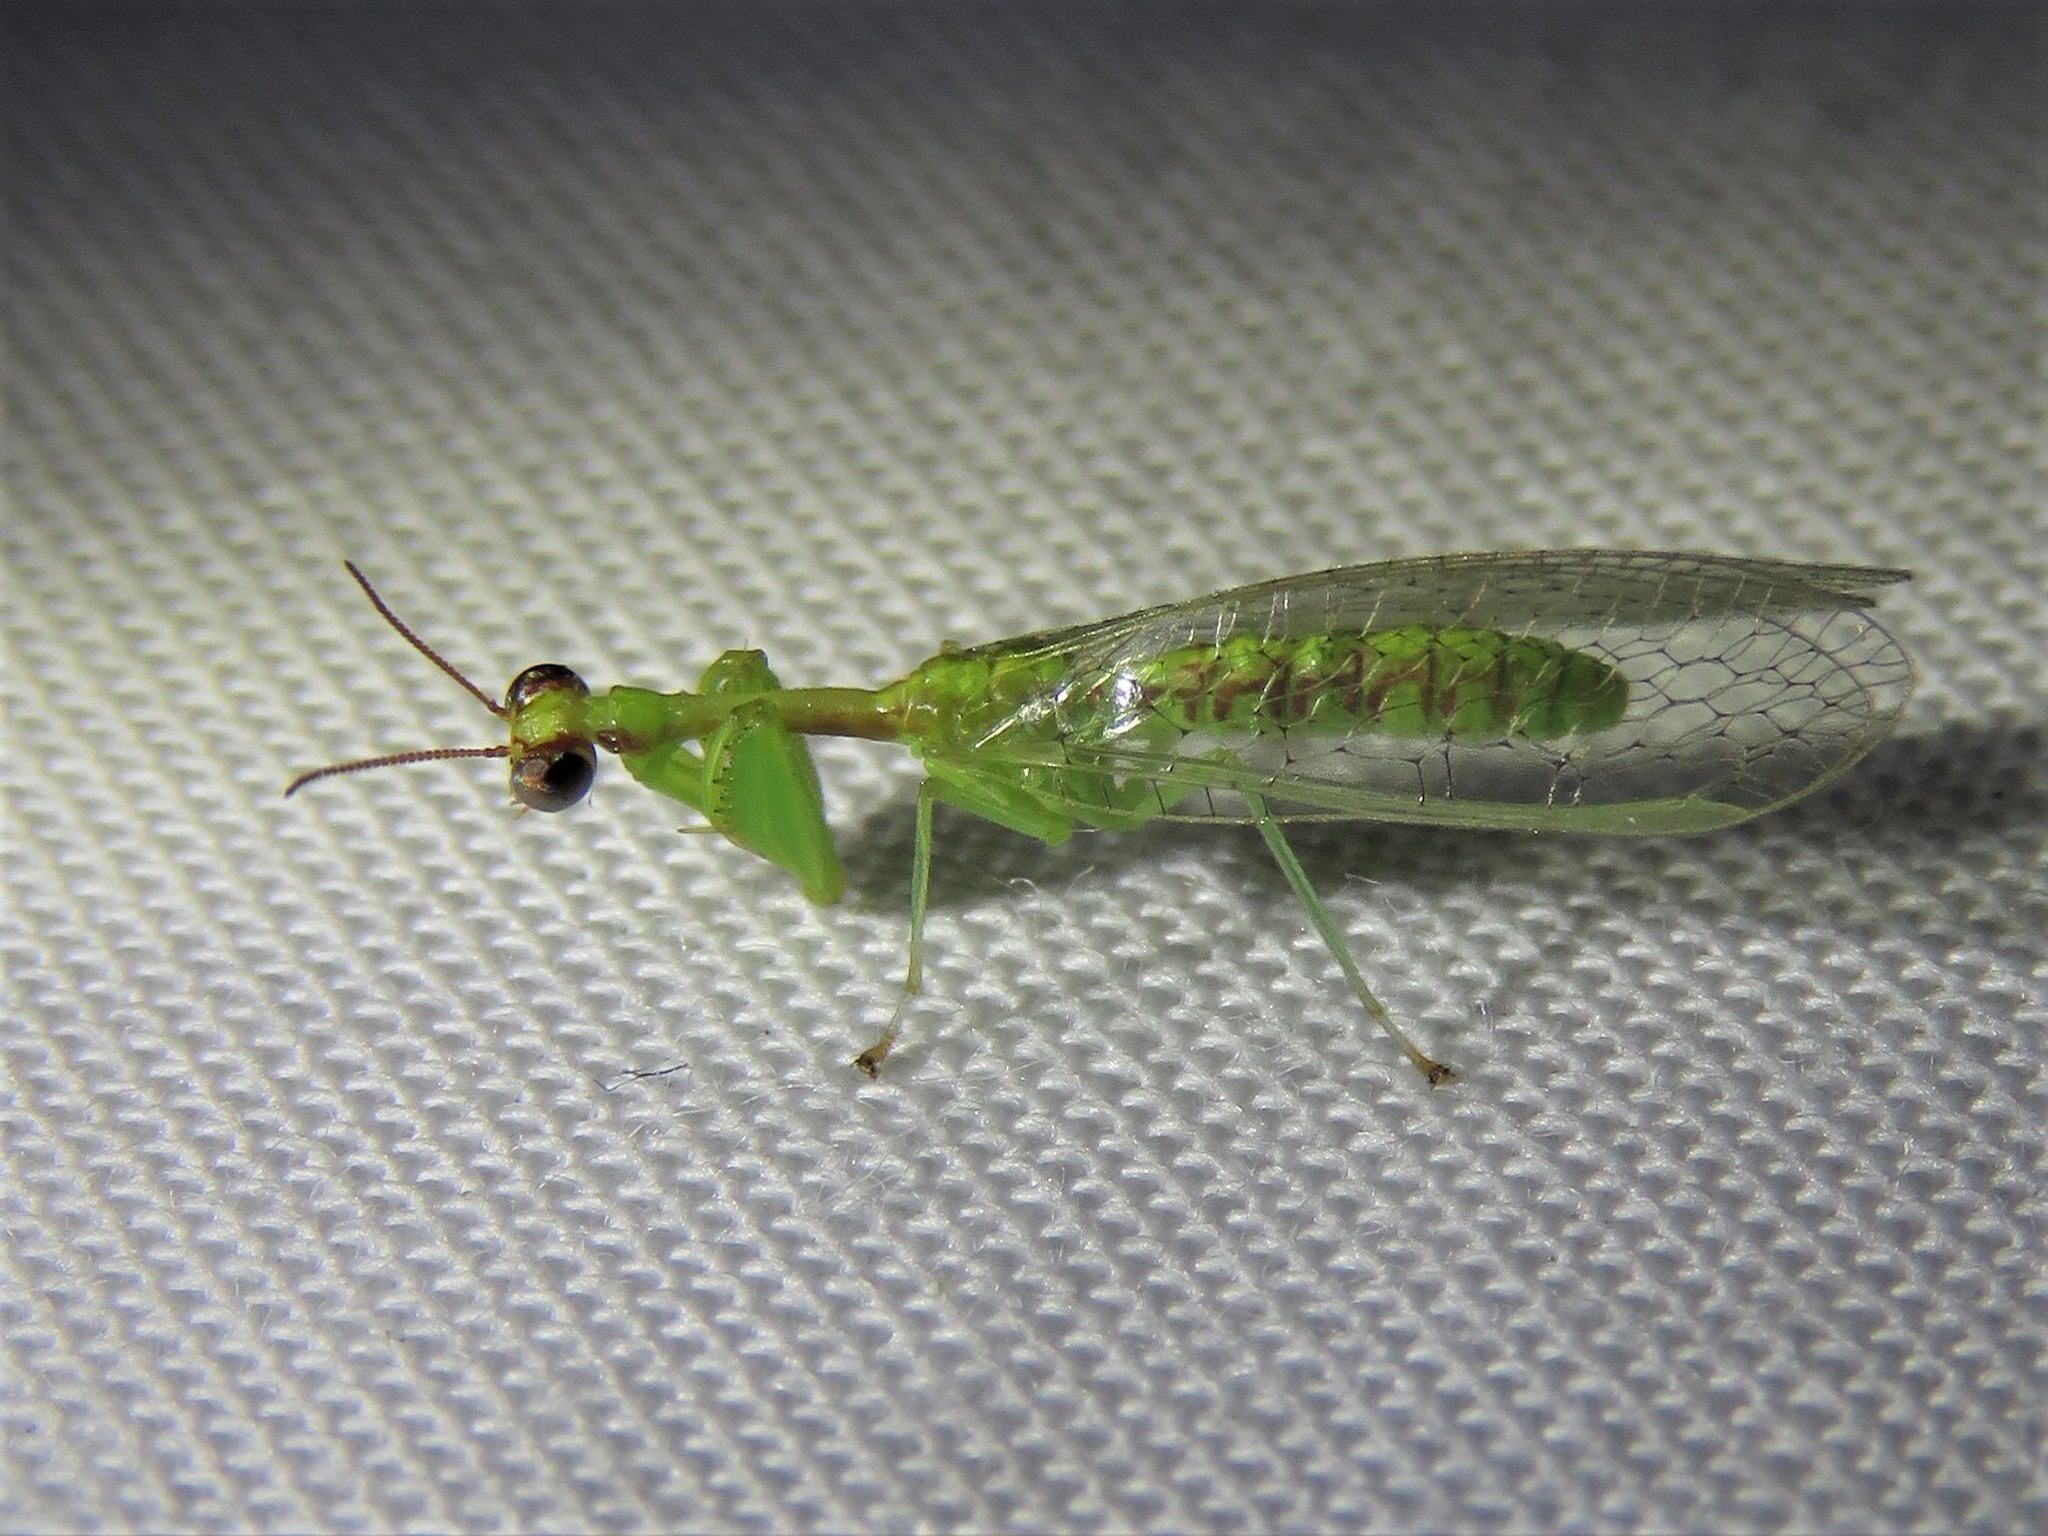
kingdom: Animalia
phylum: Arthropoda
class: Insecta
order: Neuroptera
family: Mantispidae
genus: Zeugomantispa
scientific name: Zeugomantispa minuta
